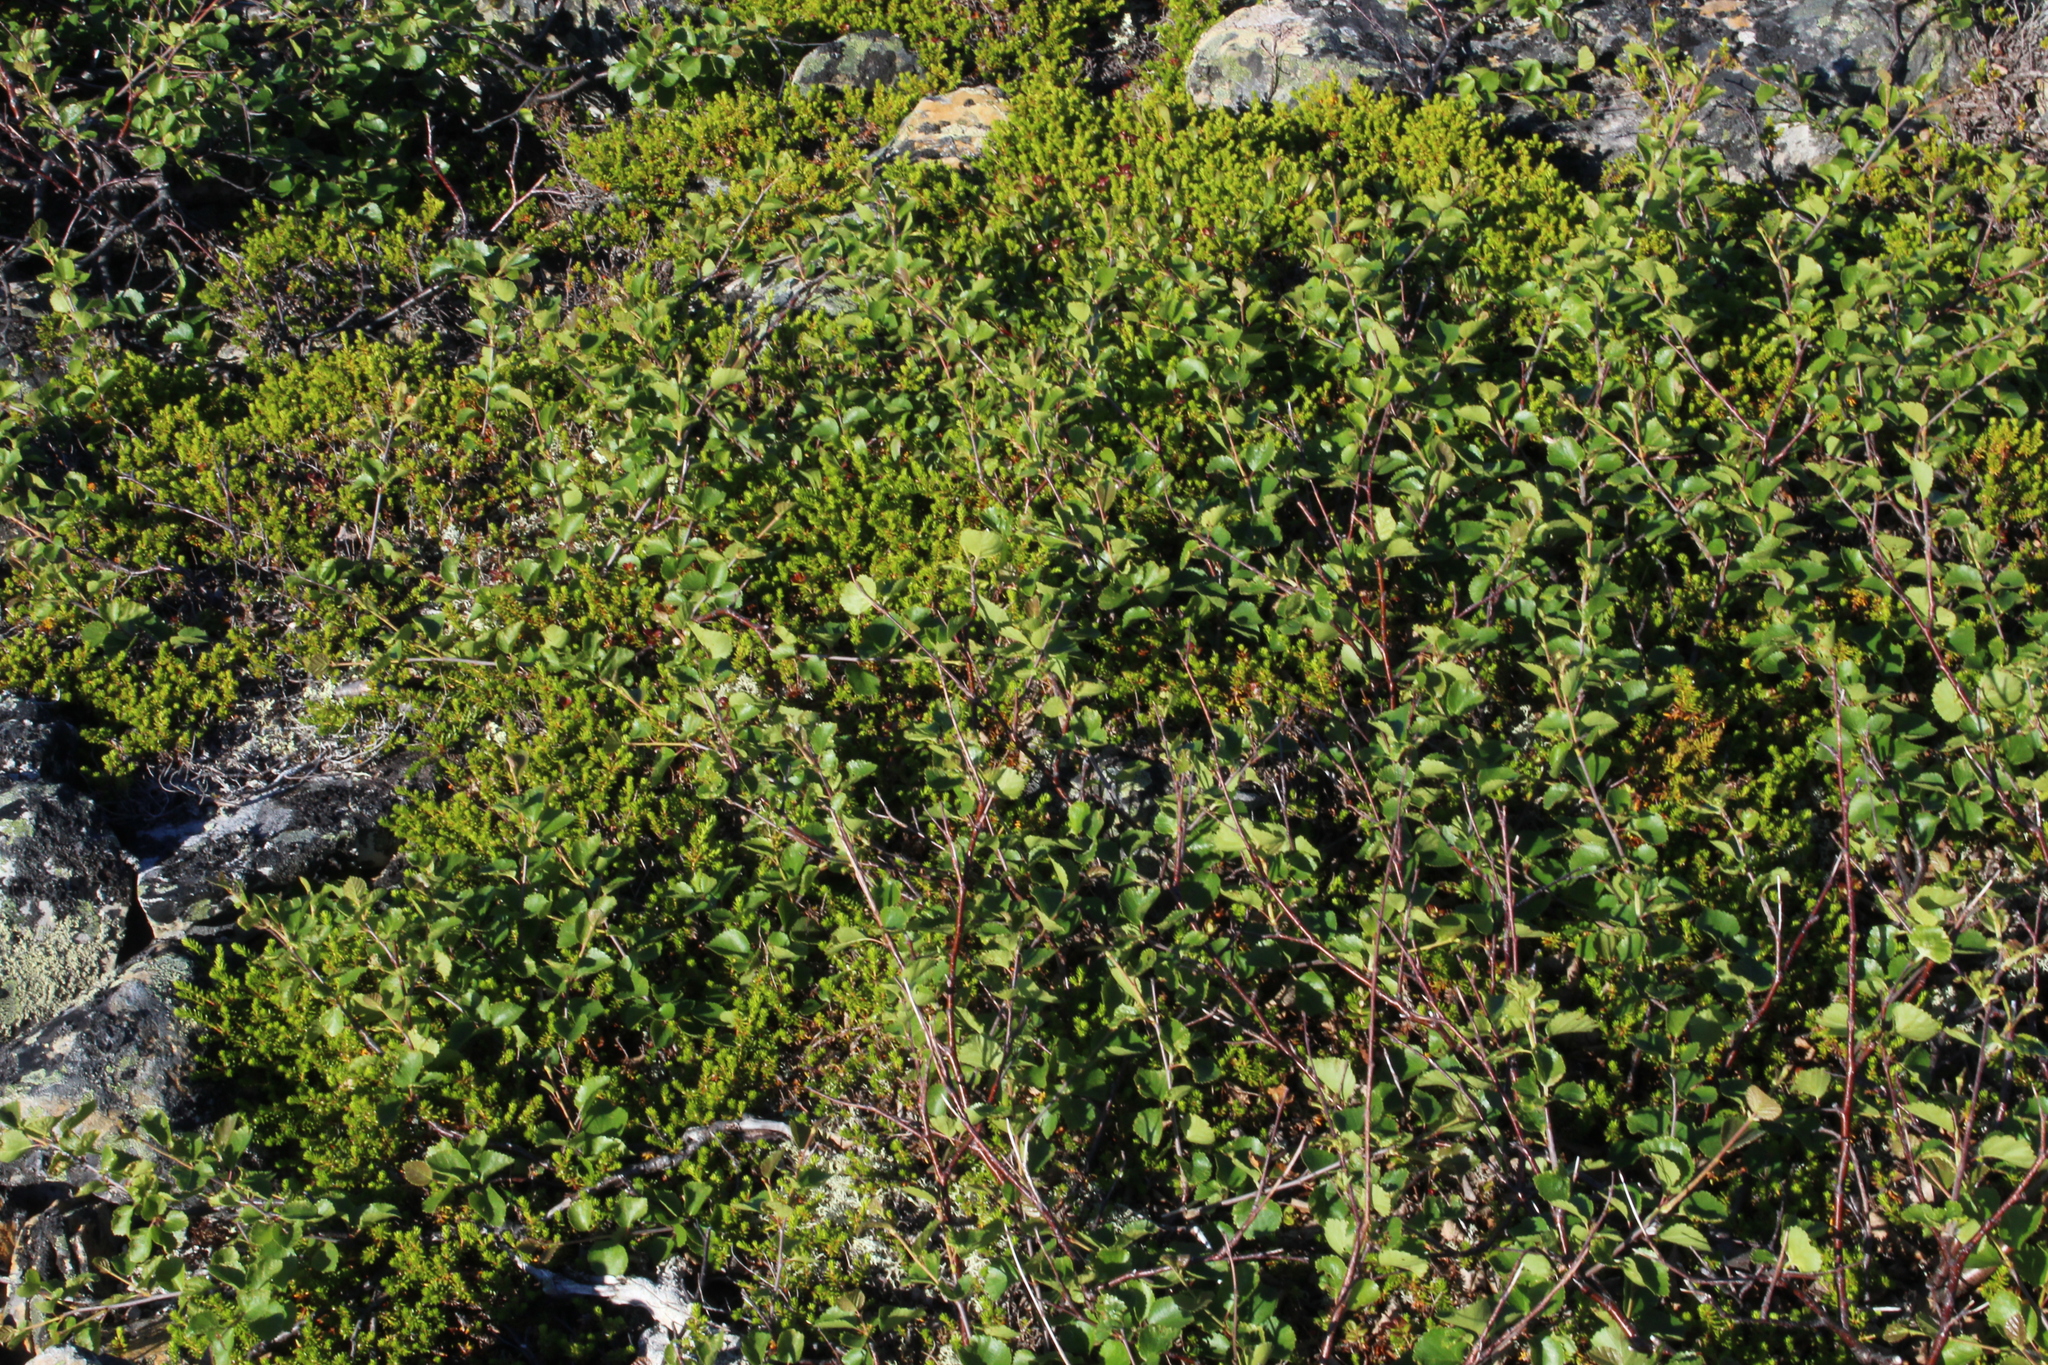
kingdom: Plantae
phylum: Tracheophyta
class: Magnoliopsida
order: Fagales
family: Betulaceae
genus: Betula
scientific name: Betula intermedia
